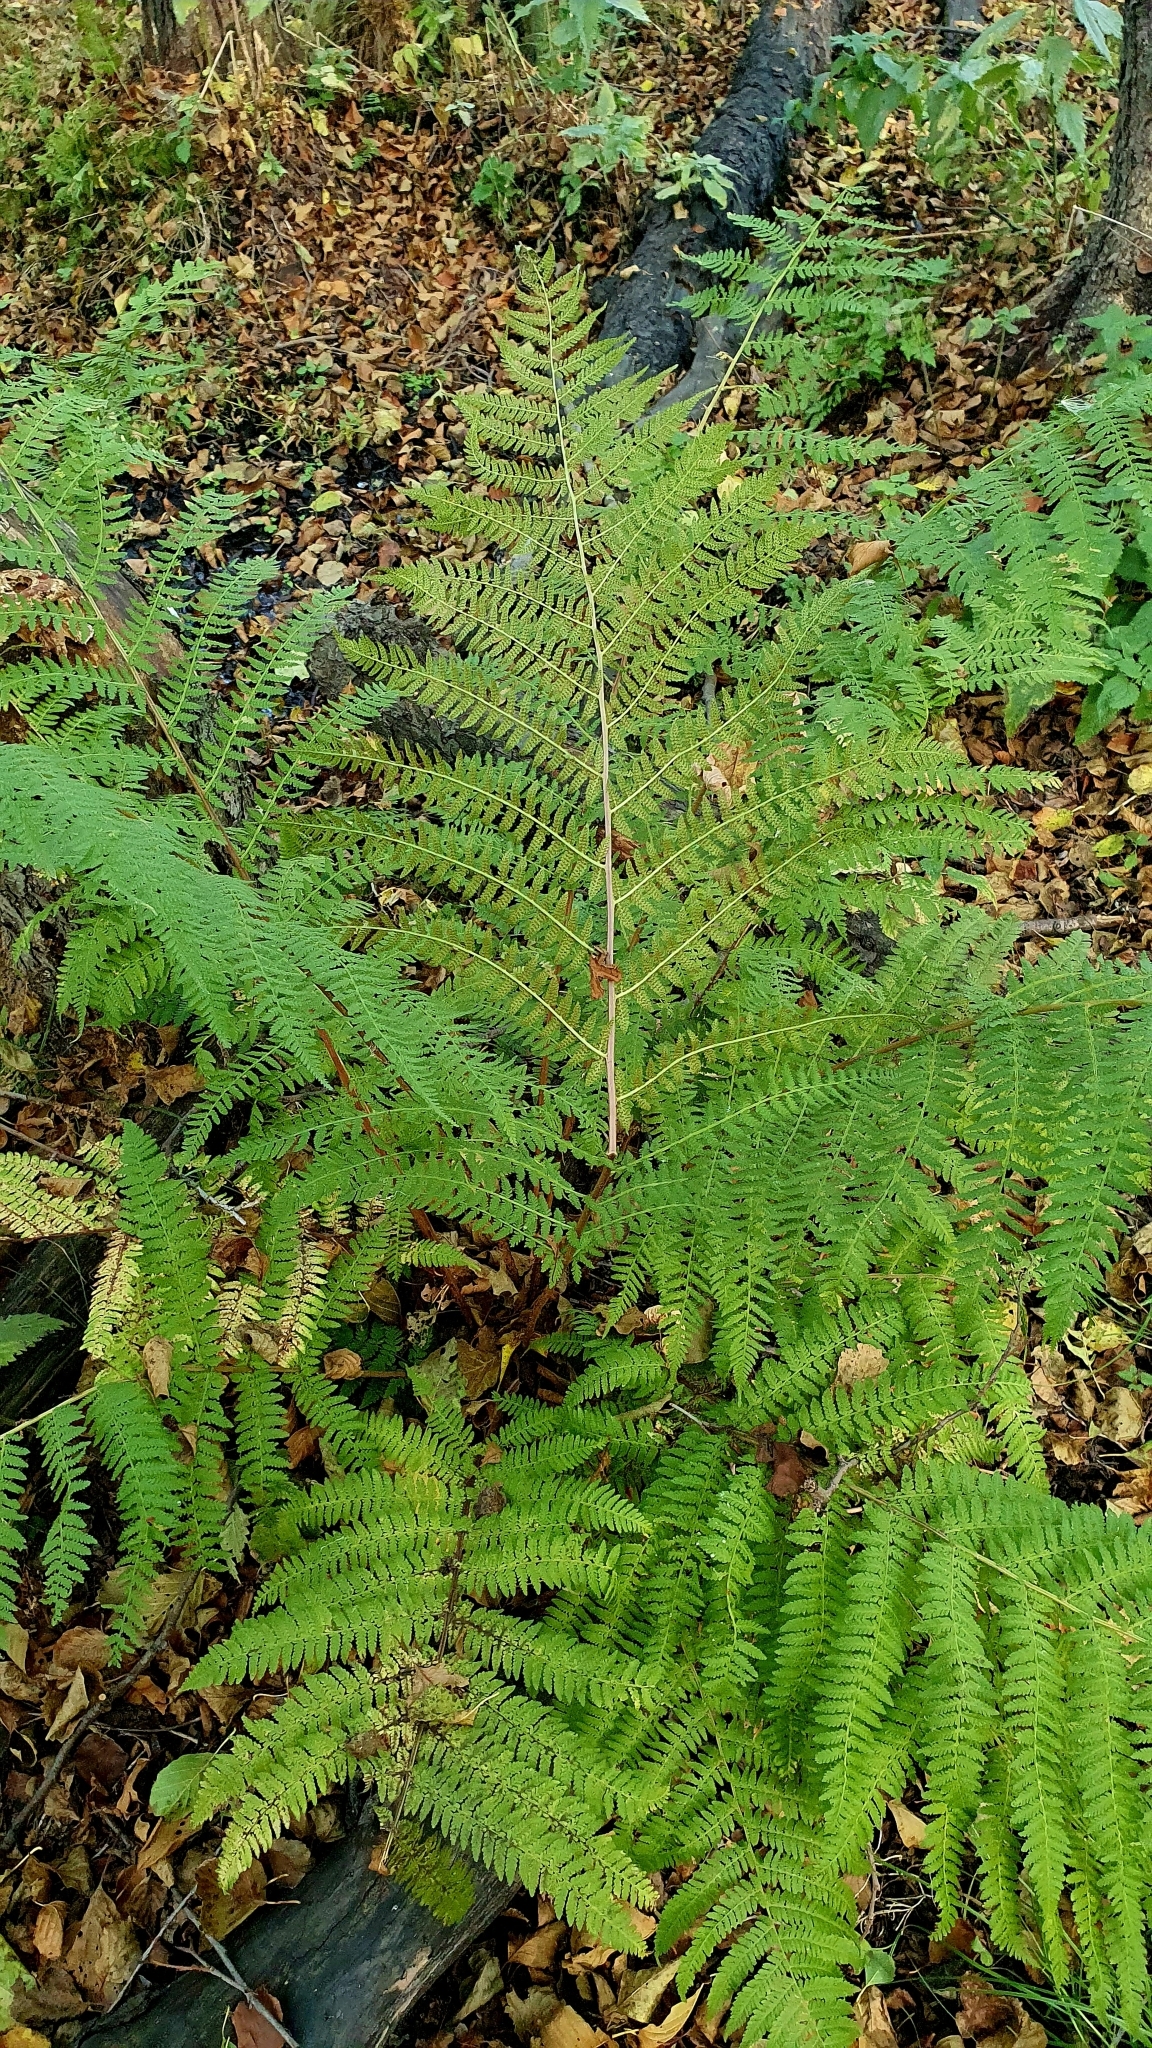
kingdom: Plantae
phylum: Tracheophyta
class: Polypodiopsida
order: Polypodiales
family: Athyriaceae
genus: Athyrium
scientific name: Athyrium filix-femina
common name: Lady fern
